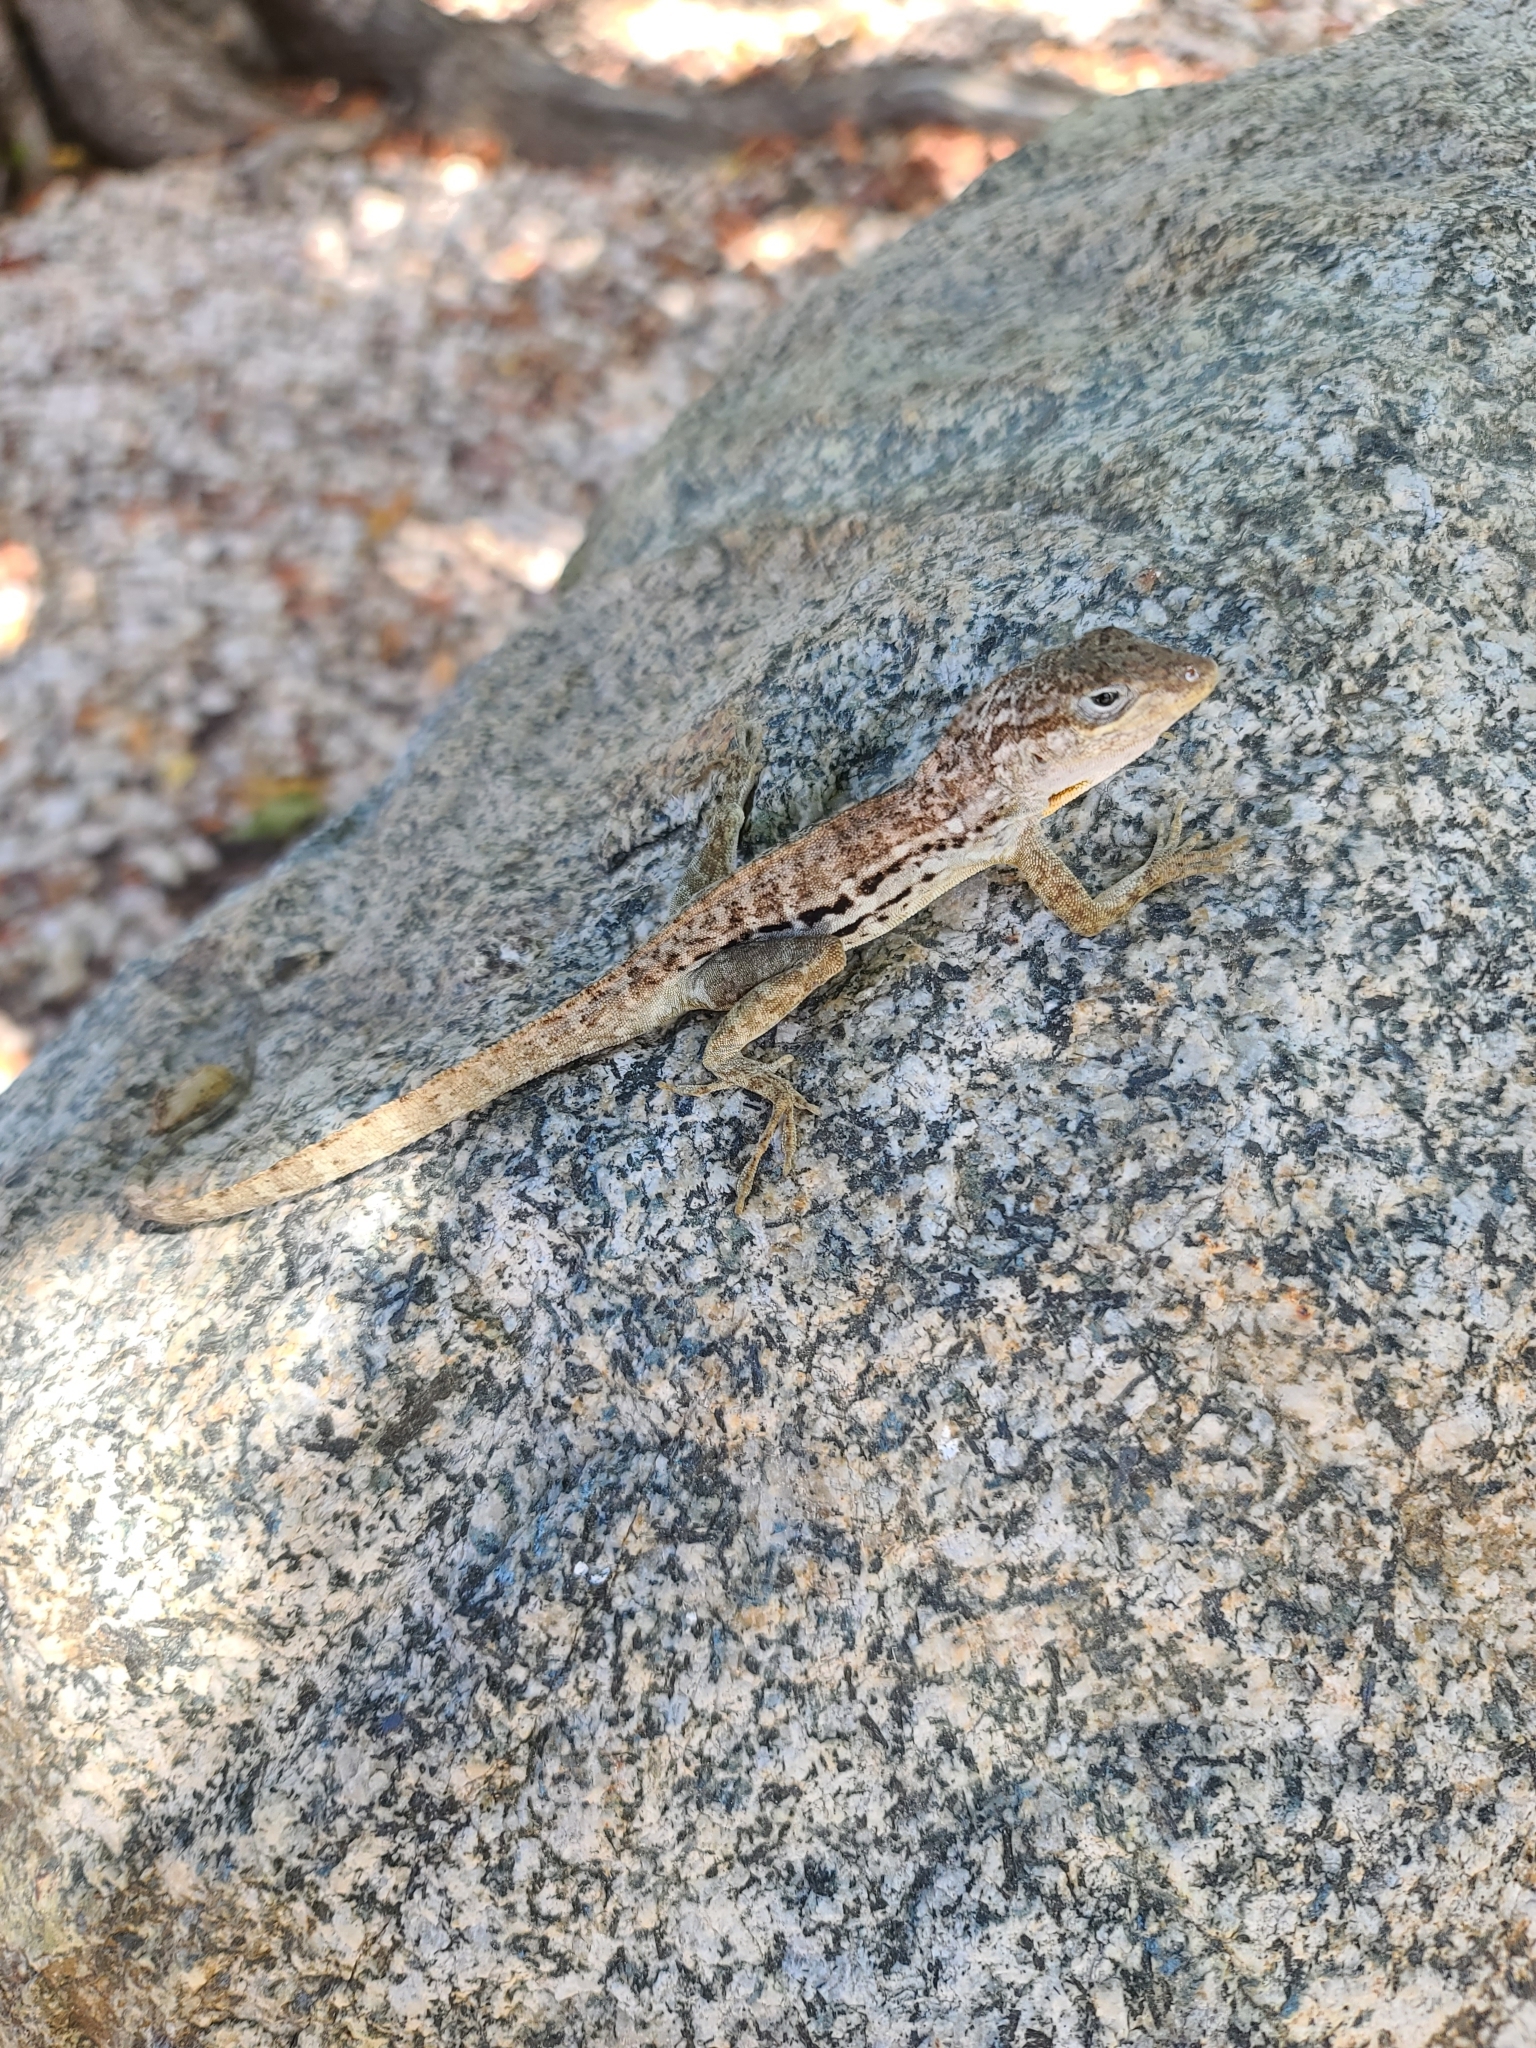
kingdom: Animalia
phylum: Chordata
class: Squamata
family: Dactyloidae
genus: Anolis
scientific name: Anolis lineatus
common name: Striped anole
